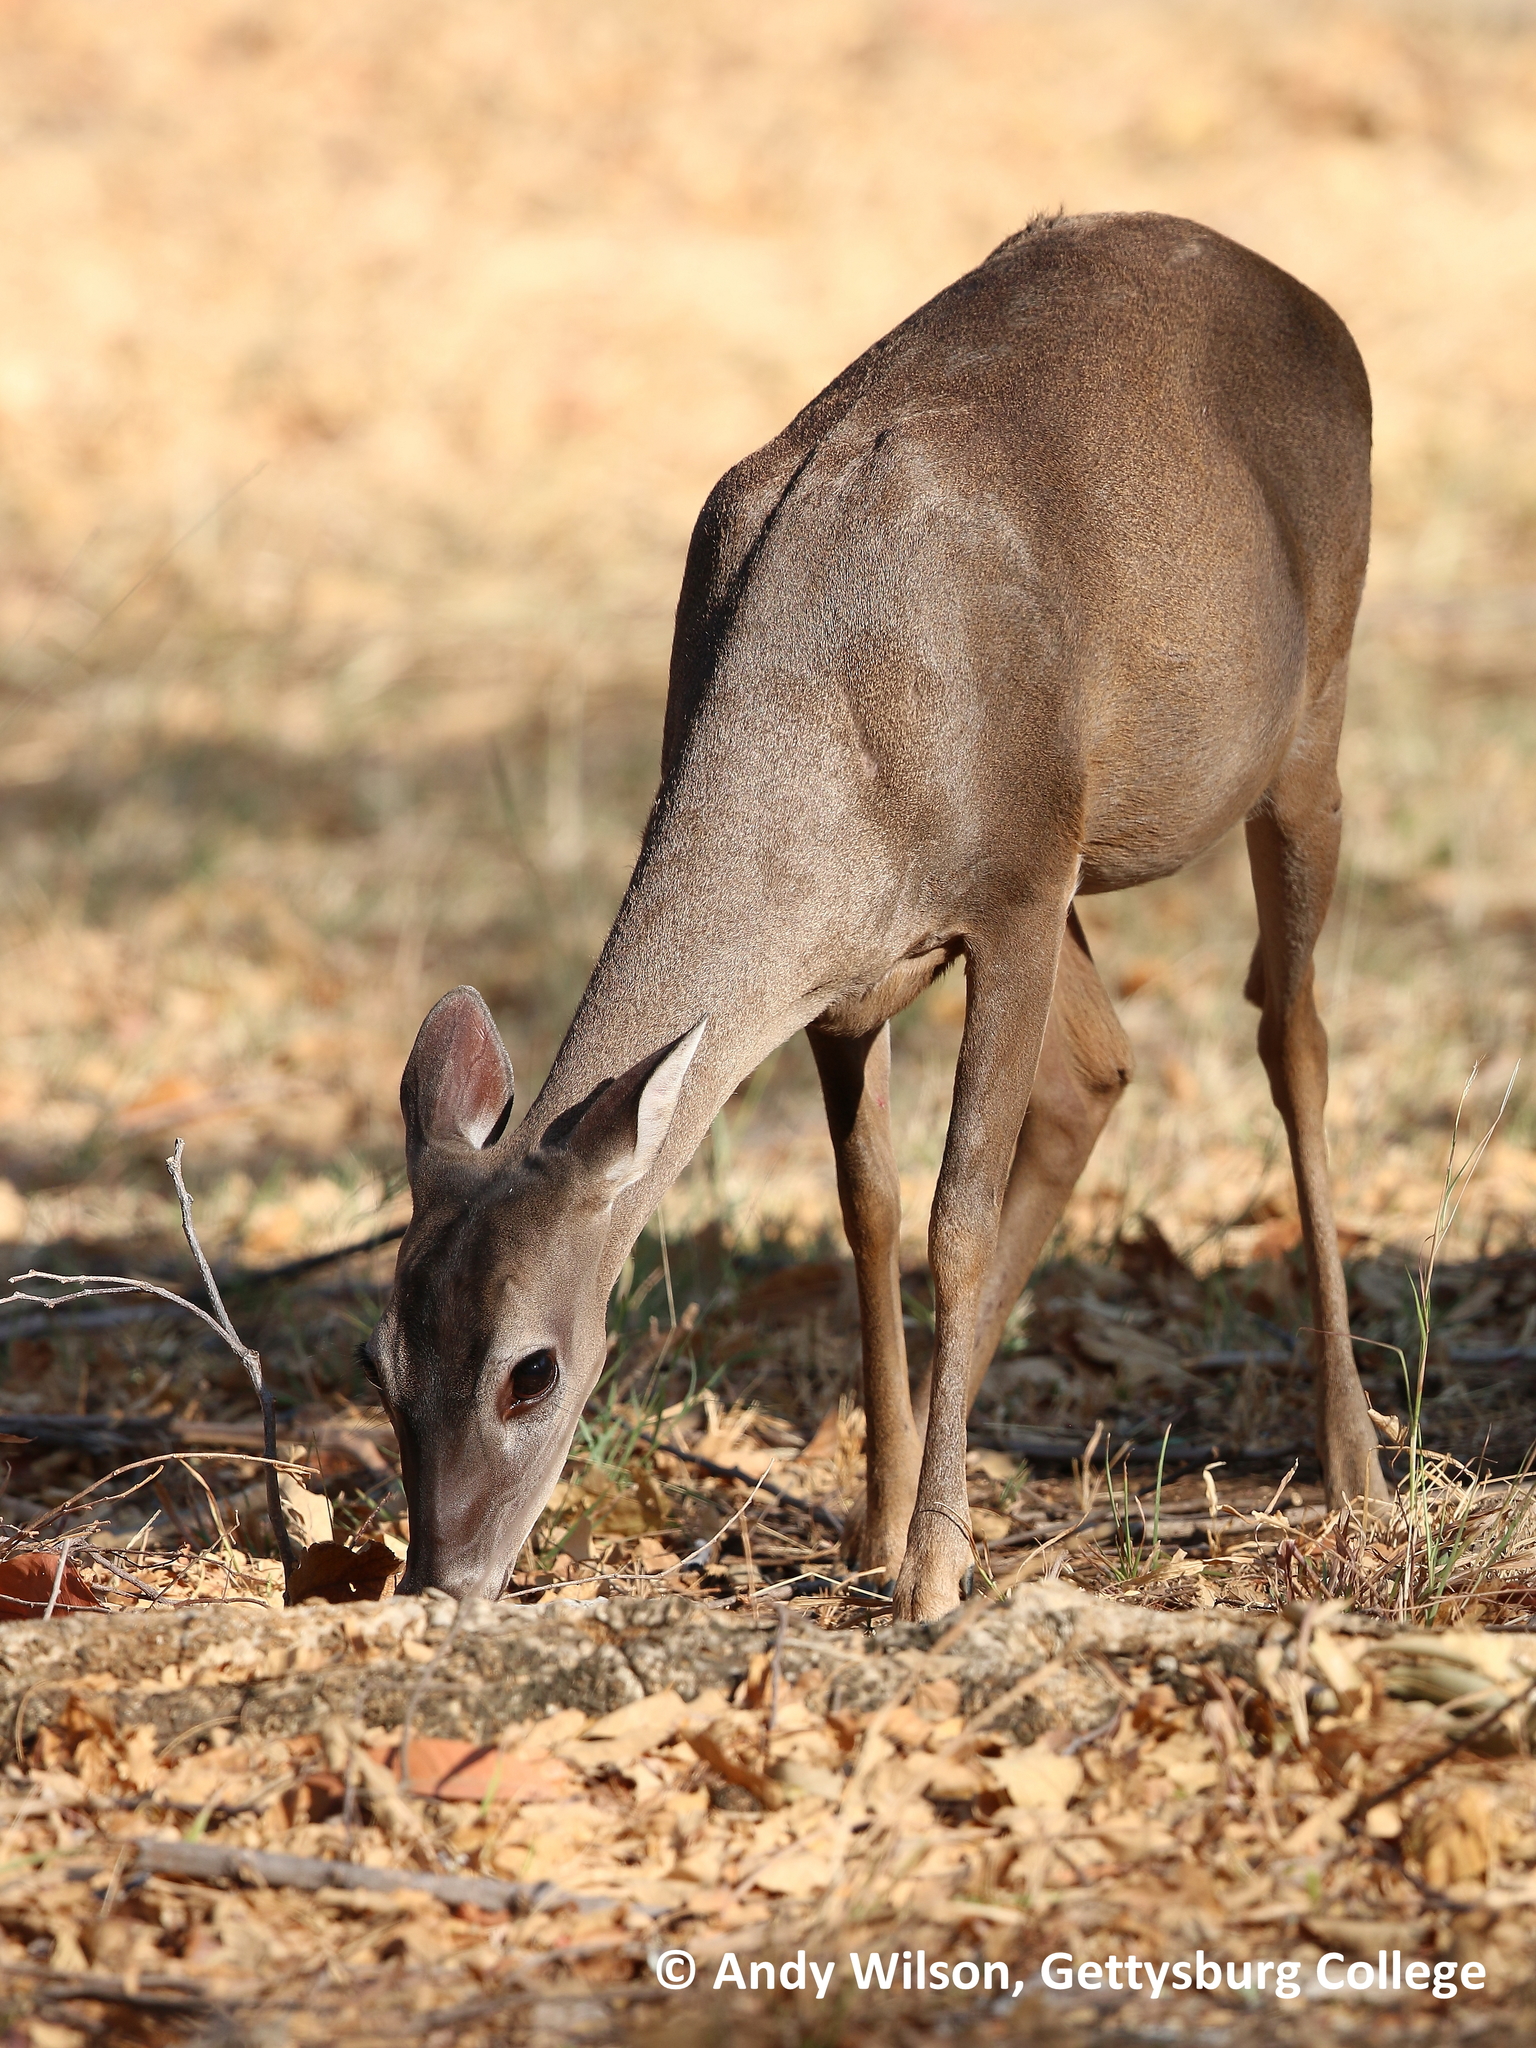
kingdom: Animalia
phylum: Chordata
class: Mammalia
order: Artiodactyla
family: Cervidae
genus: Odocoileus
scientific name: Odocoileus virginianus
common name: White-tailed deer
